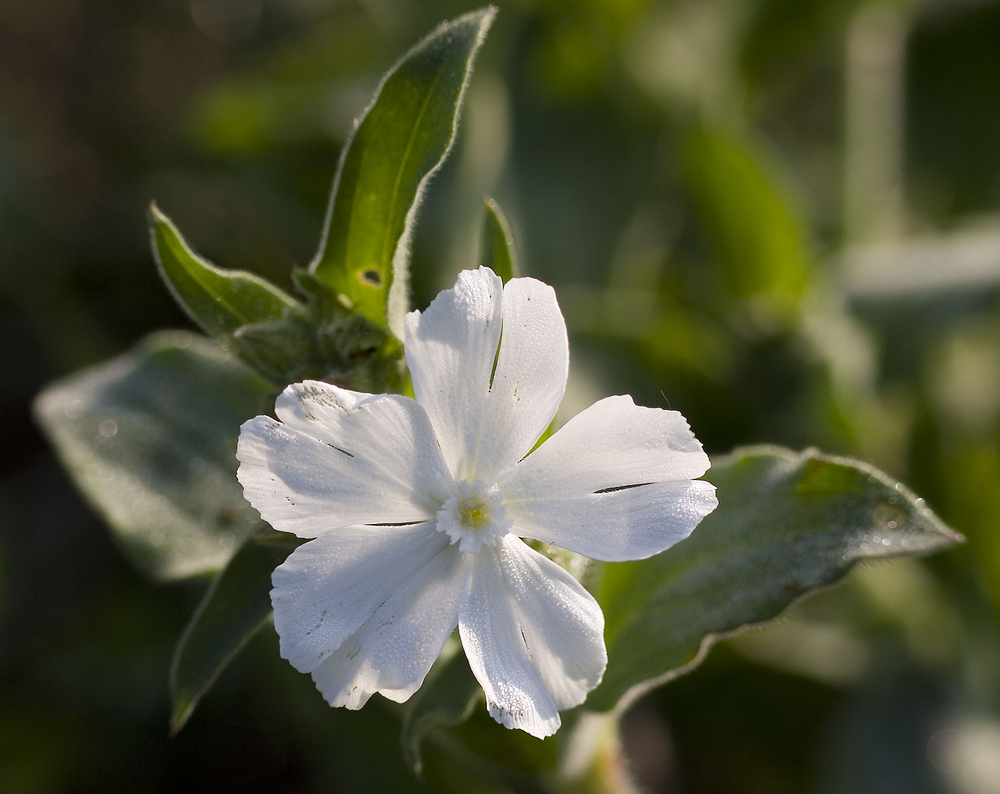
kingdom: Plantae
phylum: Tracheophyta
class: Magnoliopsida
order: Caryophyllales
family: Caryophyllaceae
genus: Silene
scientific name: Silene latifolia
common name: White campion
